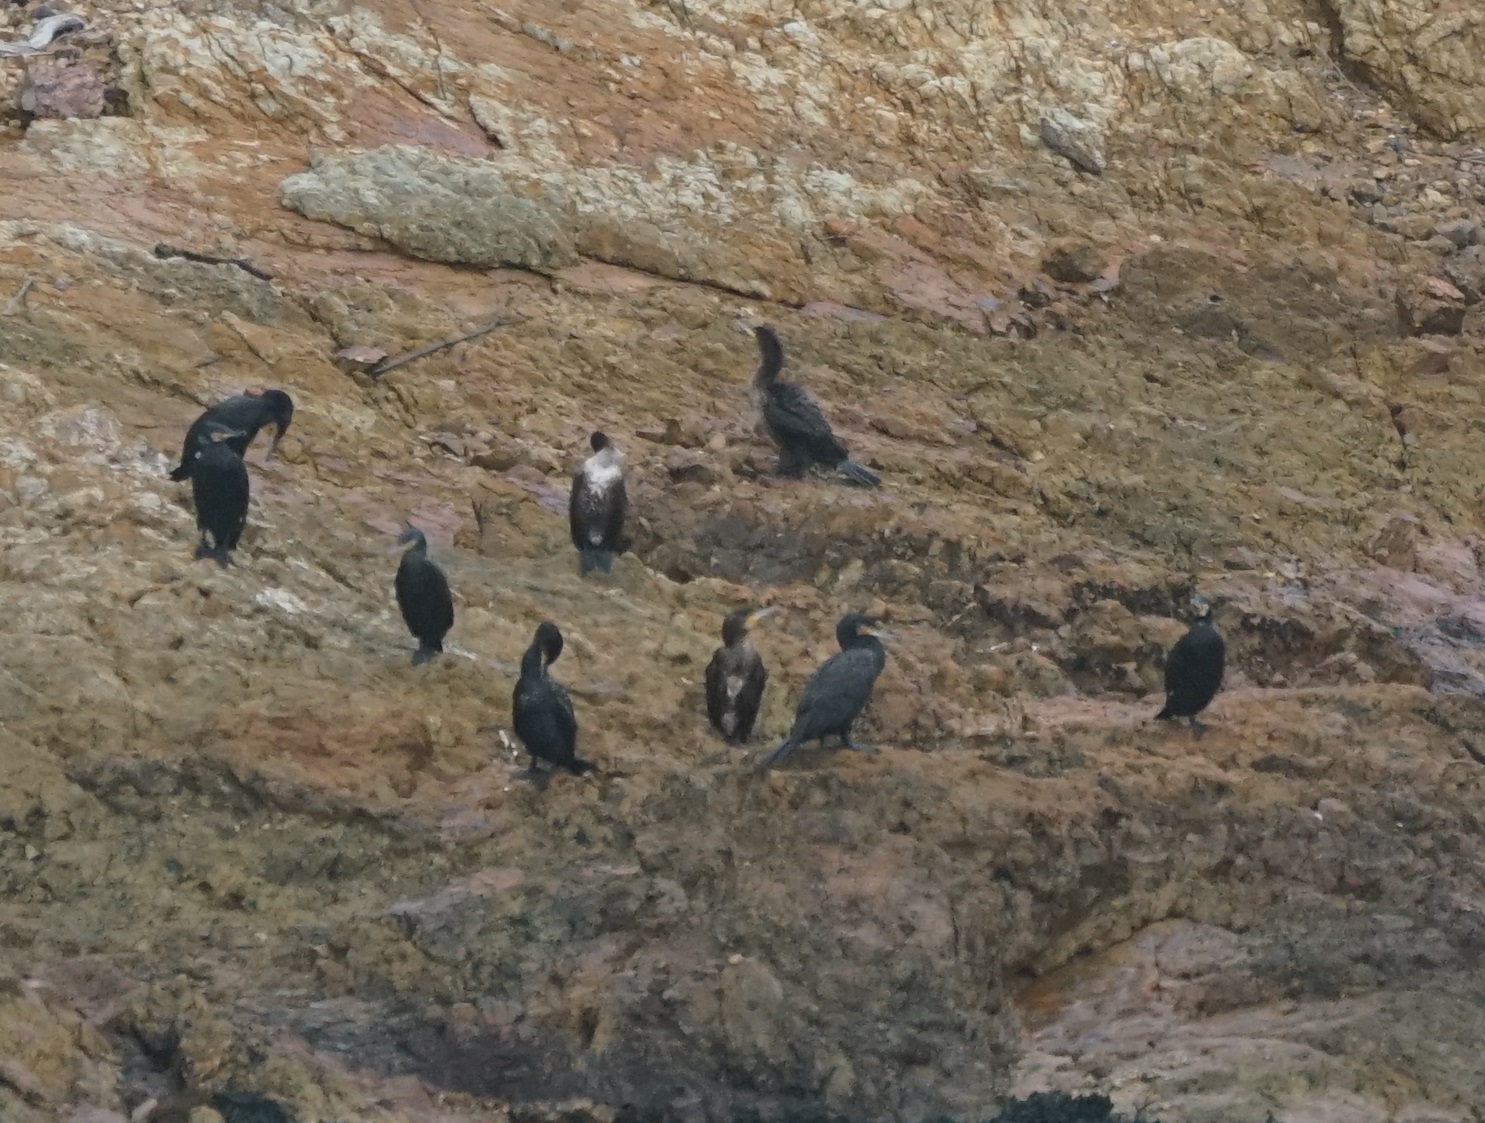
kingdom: Animalia
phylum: Chordata
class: Aves
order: Suliformes
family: Phalacrocoracidae
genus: Phalacrocorax
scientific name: Phalacrocorax carbo
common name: Great cormorant
